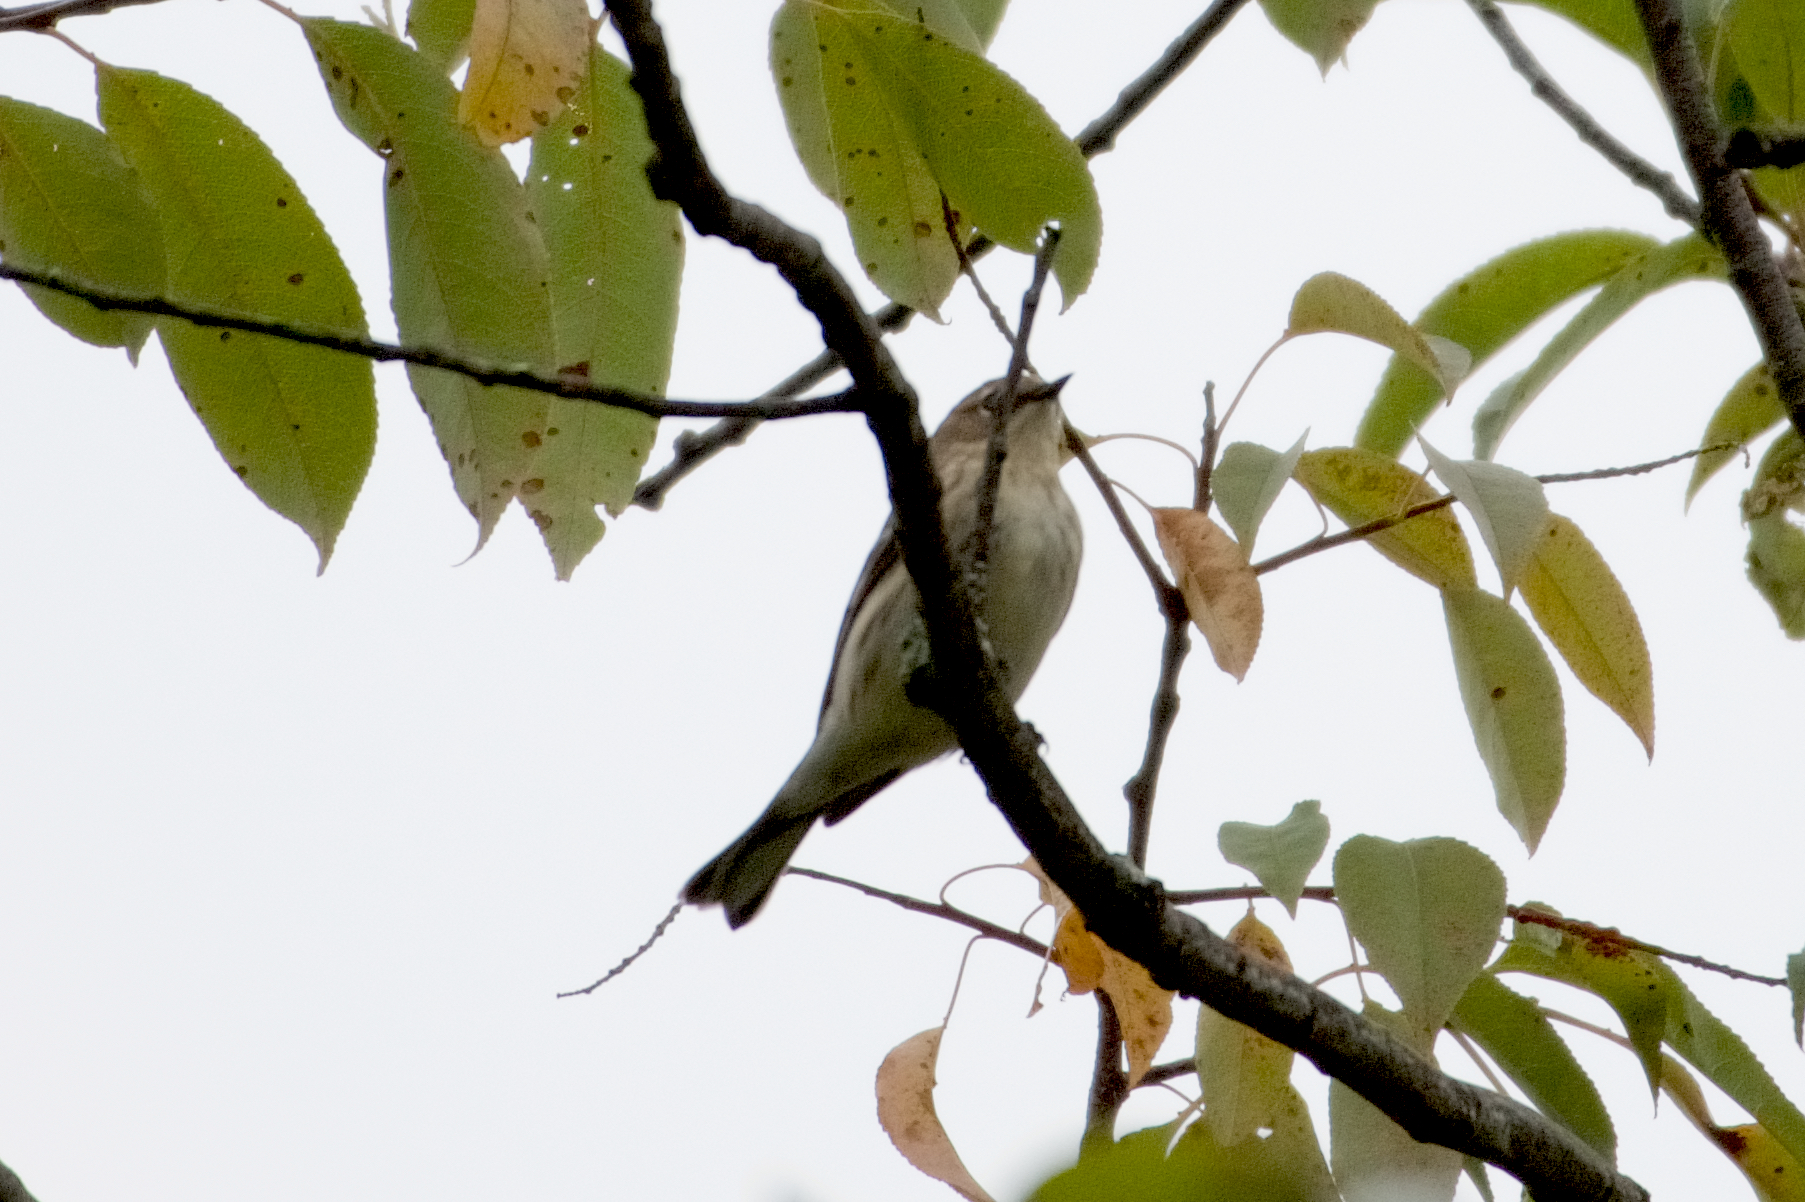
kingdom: Animalia
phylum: Chordata
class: Aves
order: Passeriformes
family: Parulidae
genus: Setophaga
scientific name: Setophaga coronata
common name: Myrtle warbler
